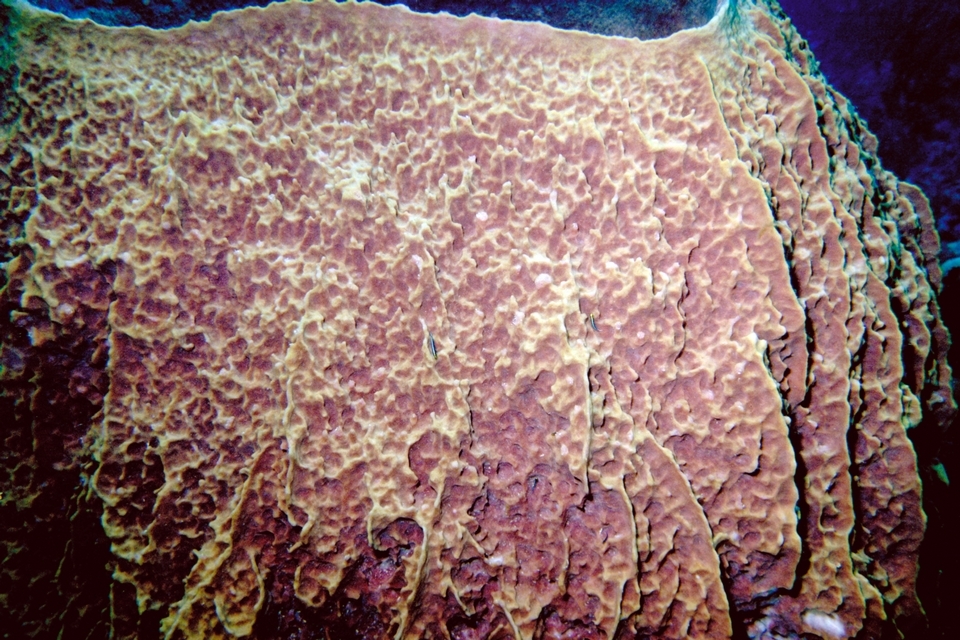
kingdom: Animalia
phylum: Porifera
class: Demospongiae
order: Haplosclerida
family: Petrosiidae
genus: Xestospongia
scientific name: Xestospongia muta
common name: Giant barrel sponge
